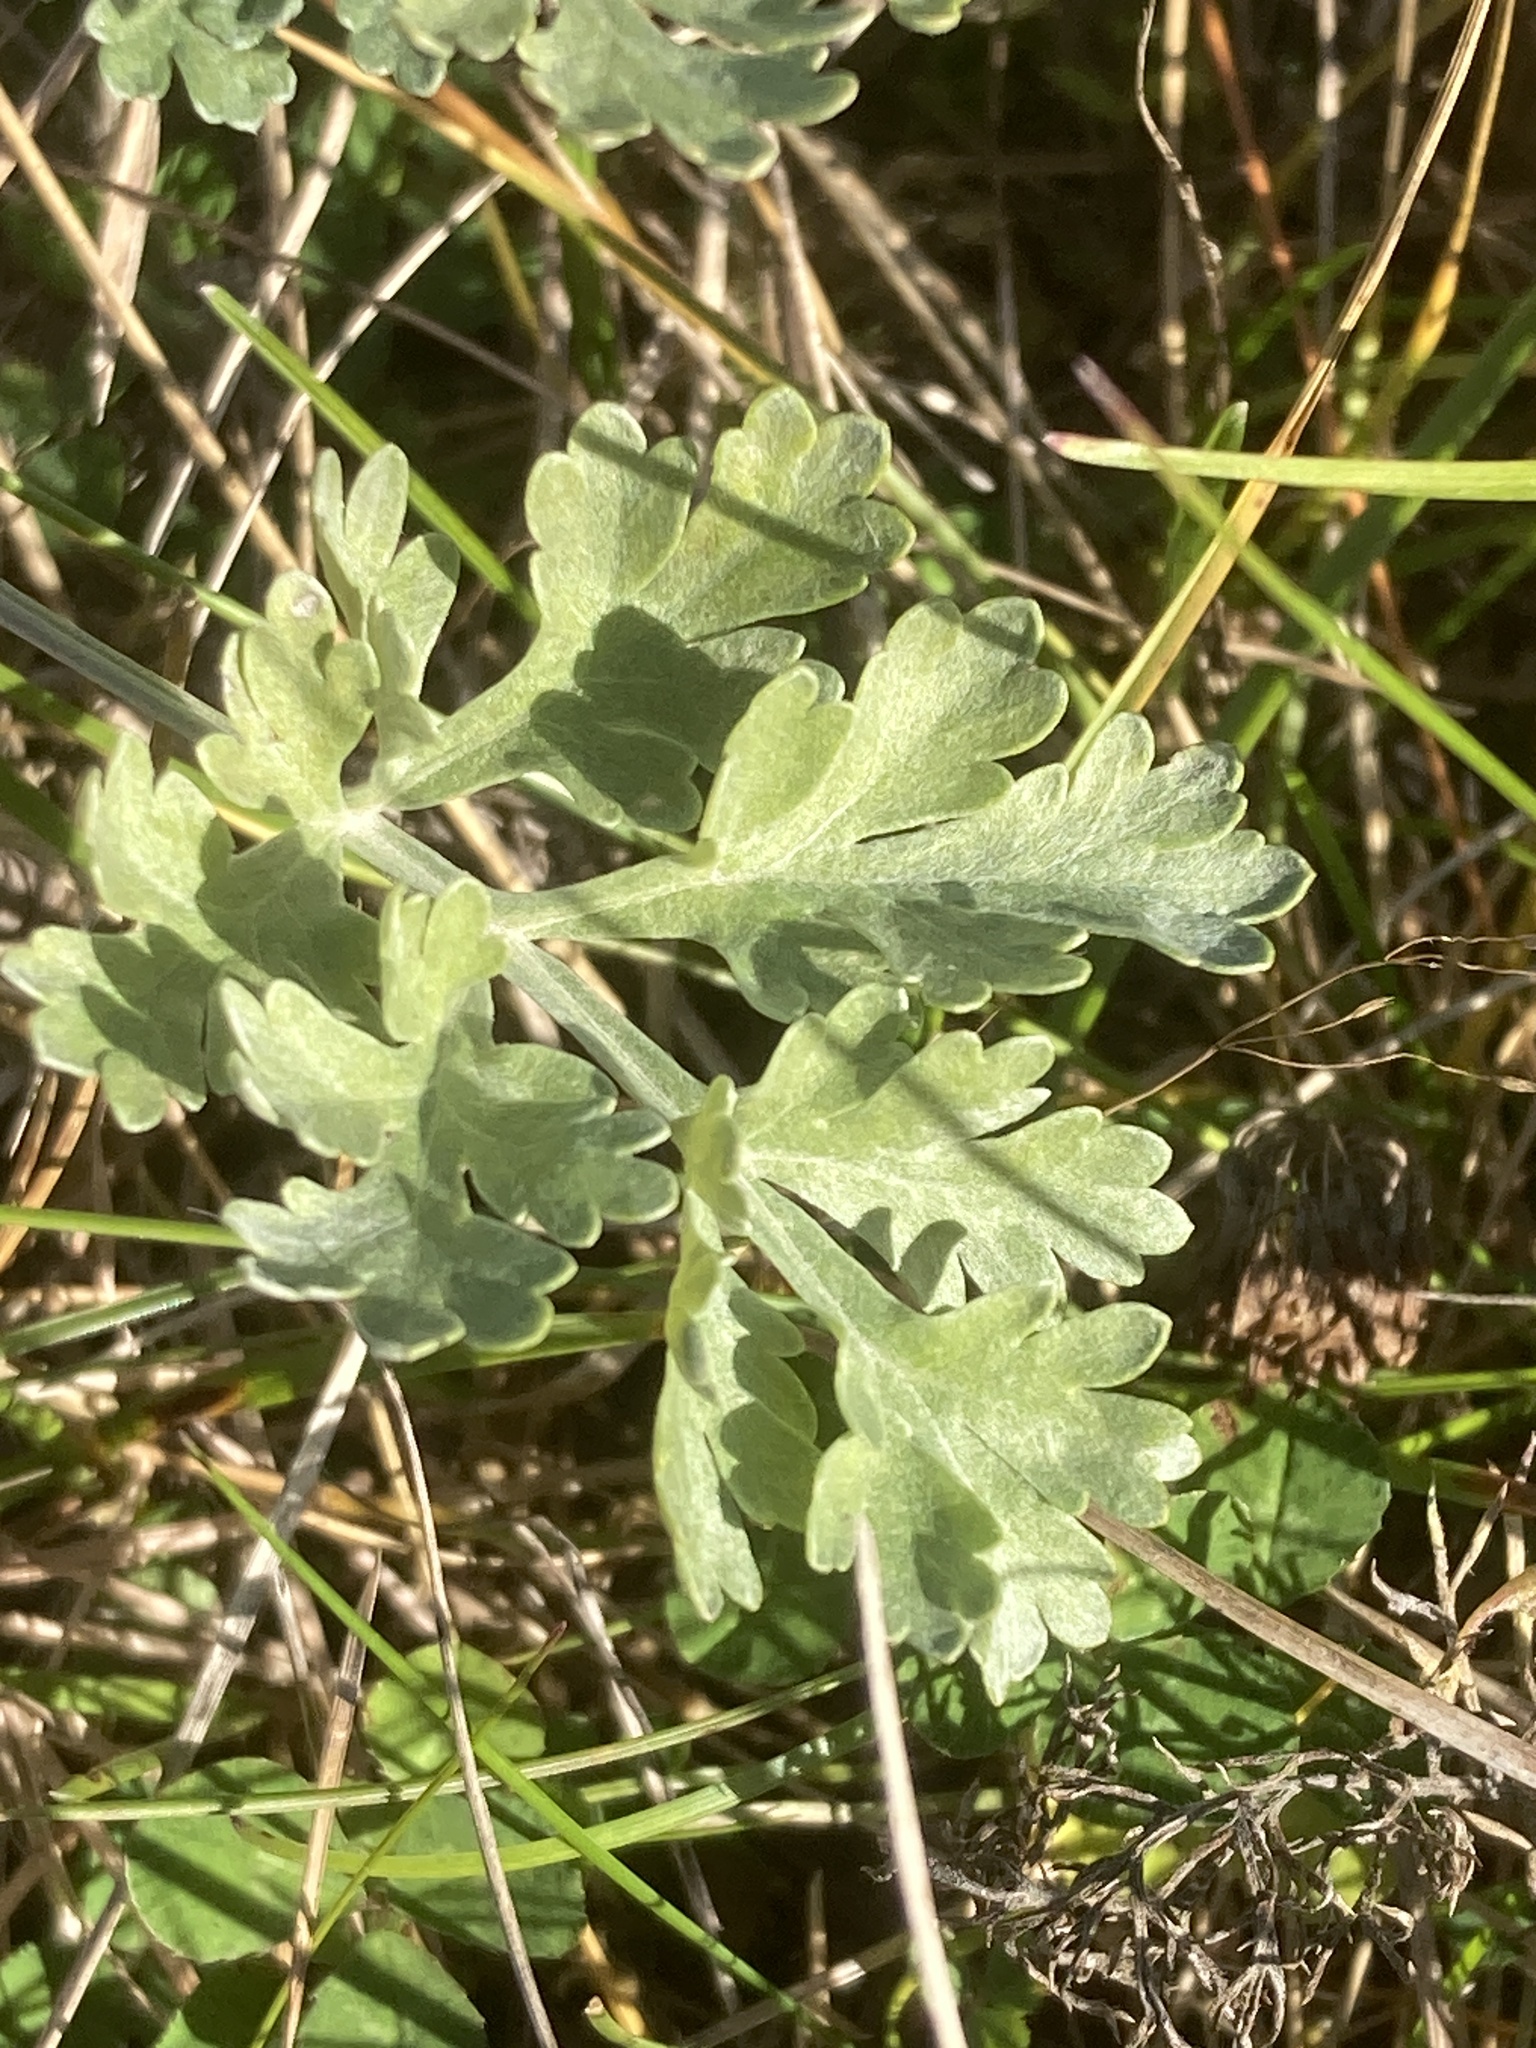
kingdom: Plantae
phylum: Tracheophyta
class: Magnoliopsida
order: Asterales
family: Asteraceae
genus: Artemisia
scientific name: Artemisia absinthium
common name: Wormwood
